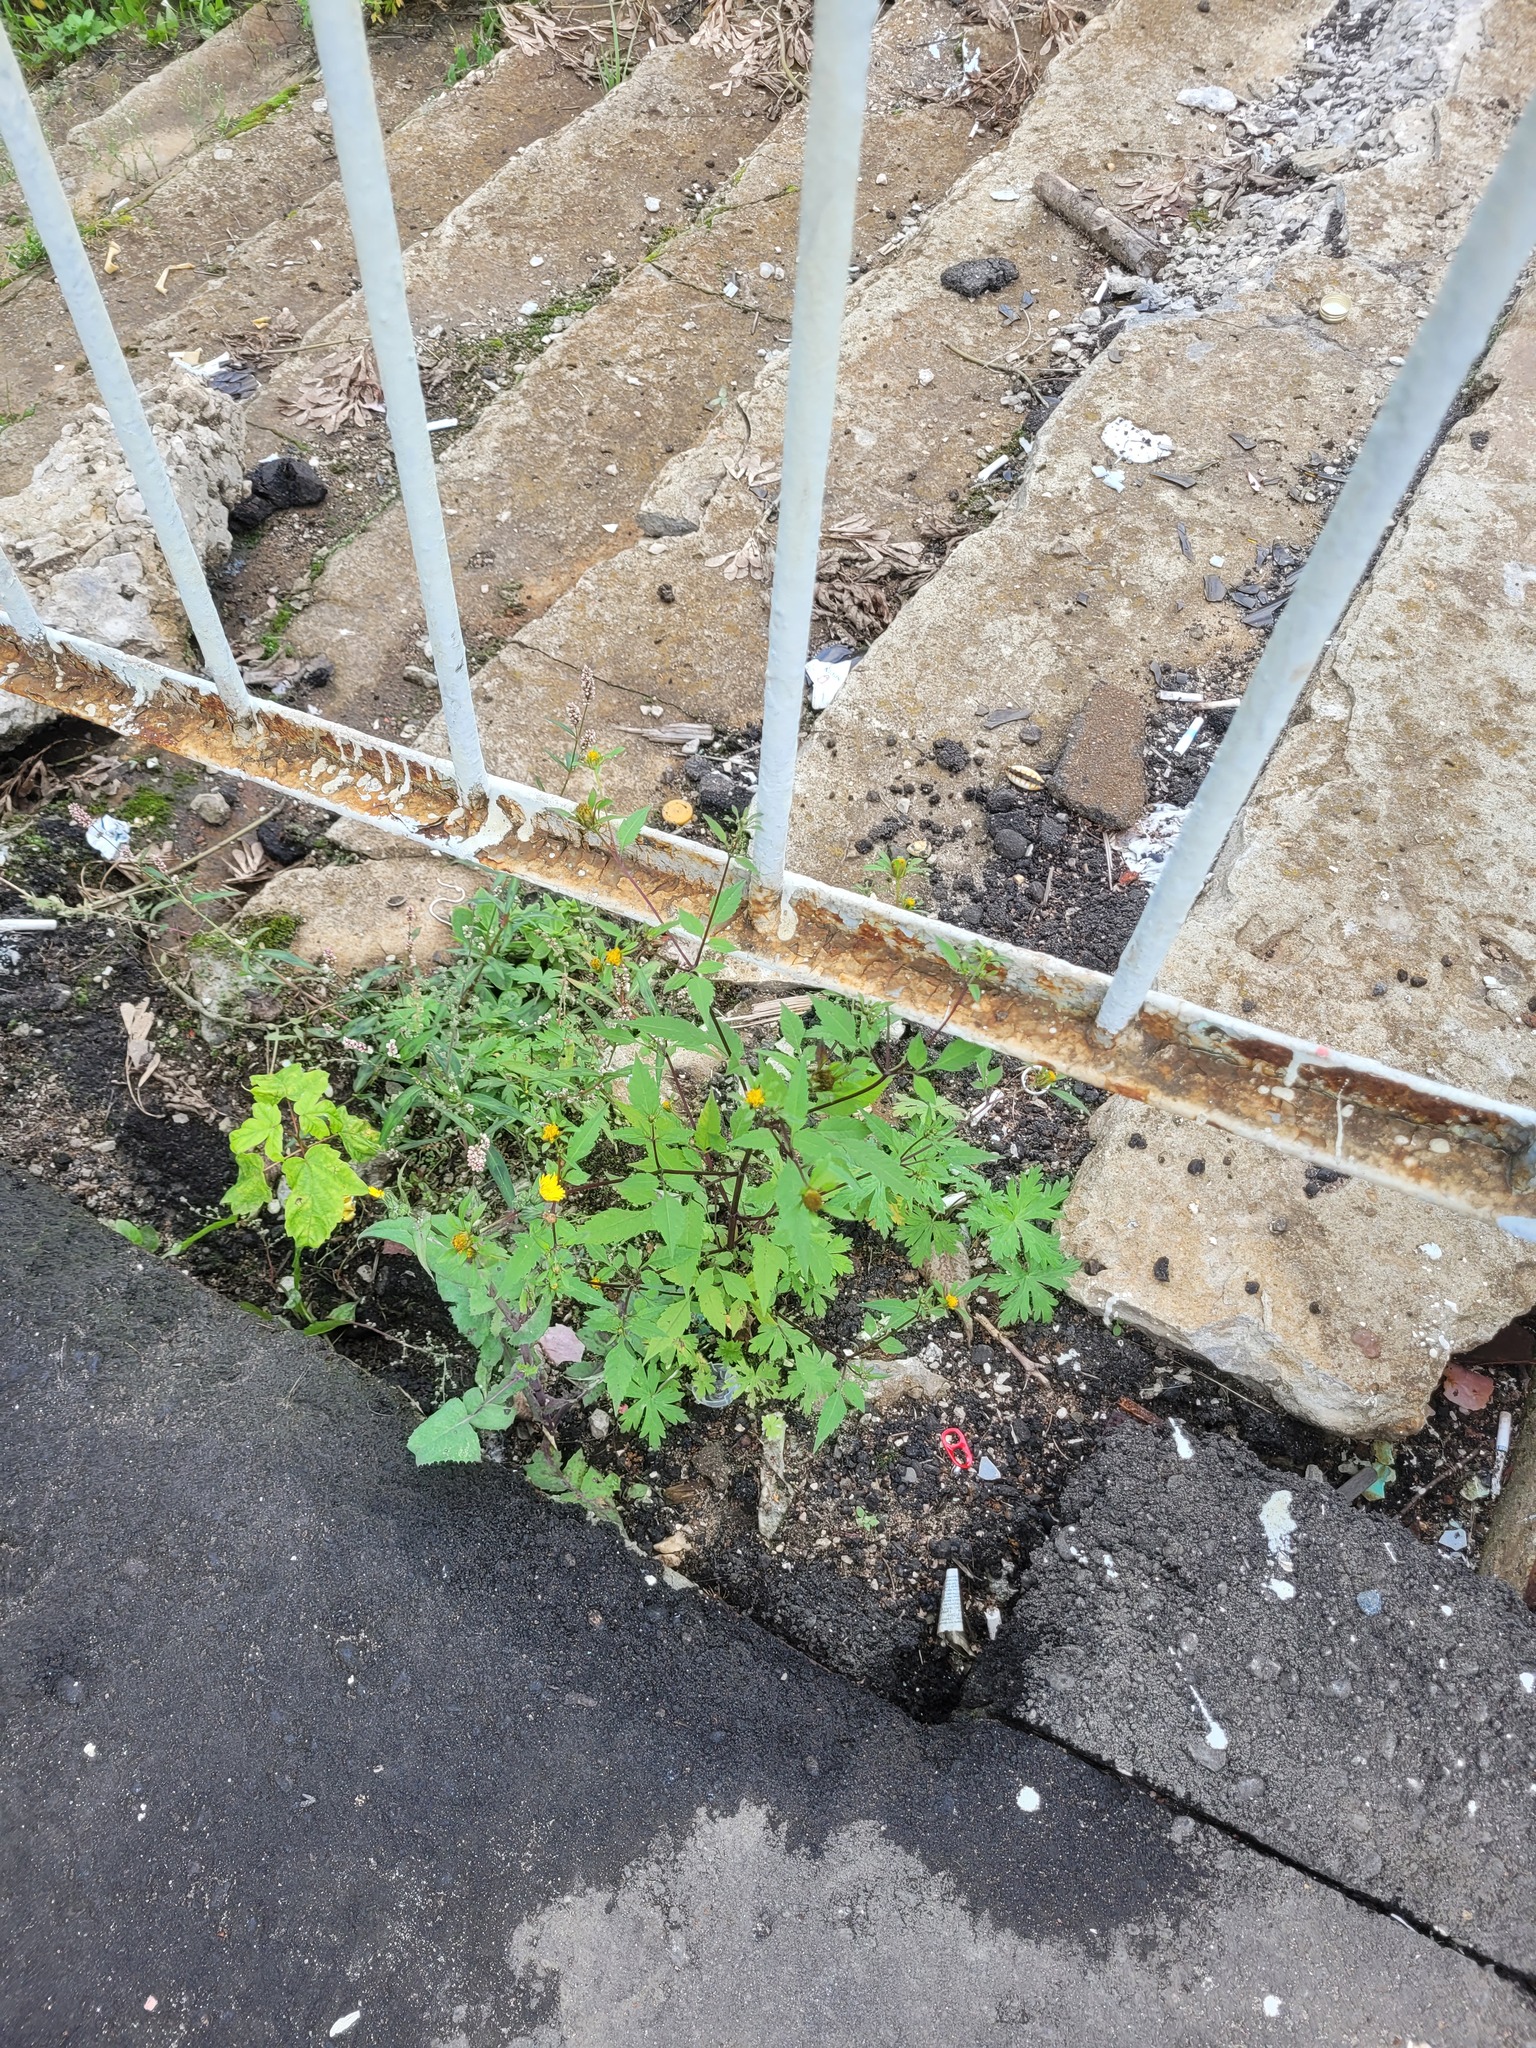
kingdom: Plantae
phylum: Tracheophyta
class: Magnoliopsida
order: Asterales
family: Asteraceae
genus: Bidens
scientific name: Bidens frondosa
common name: Beggarticks
